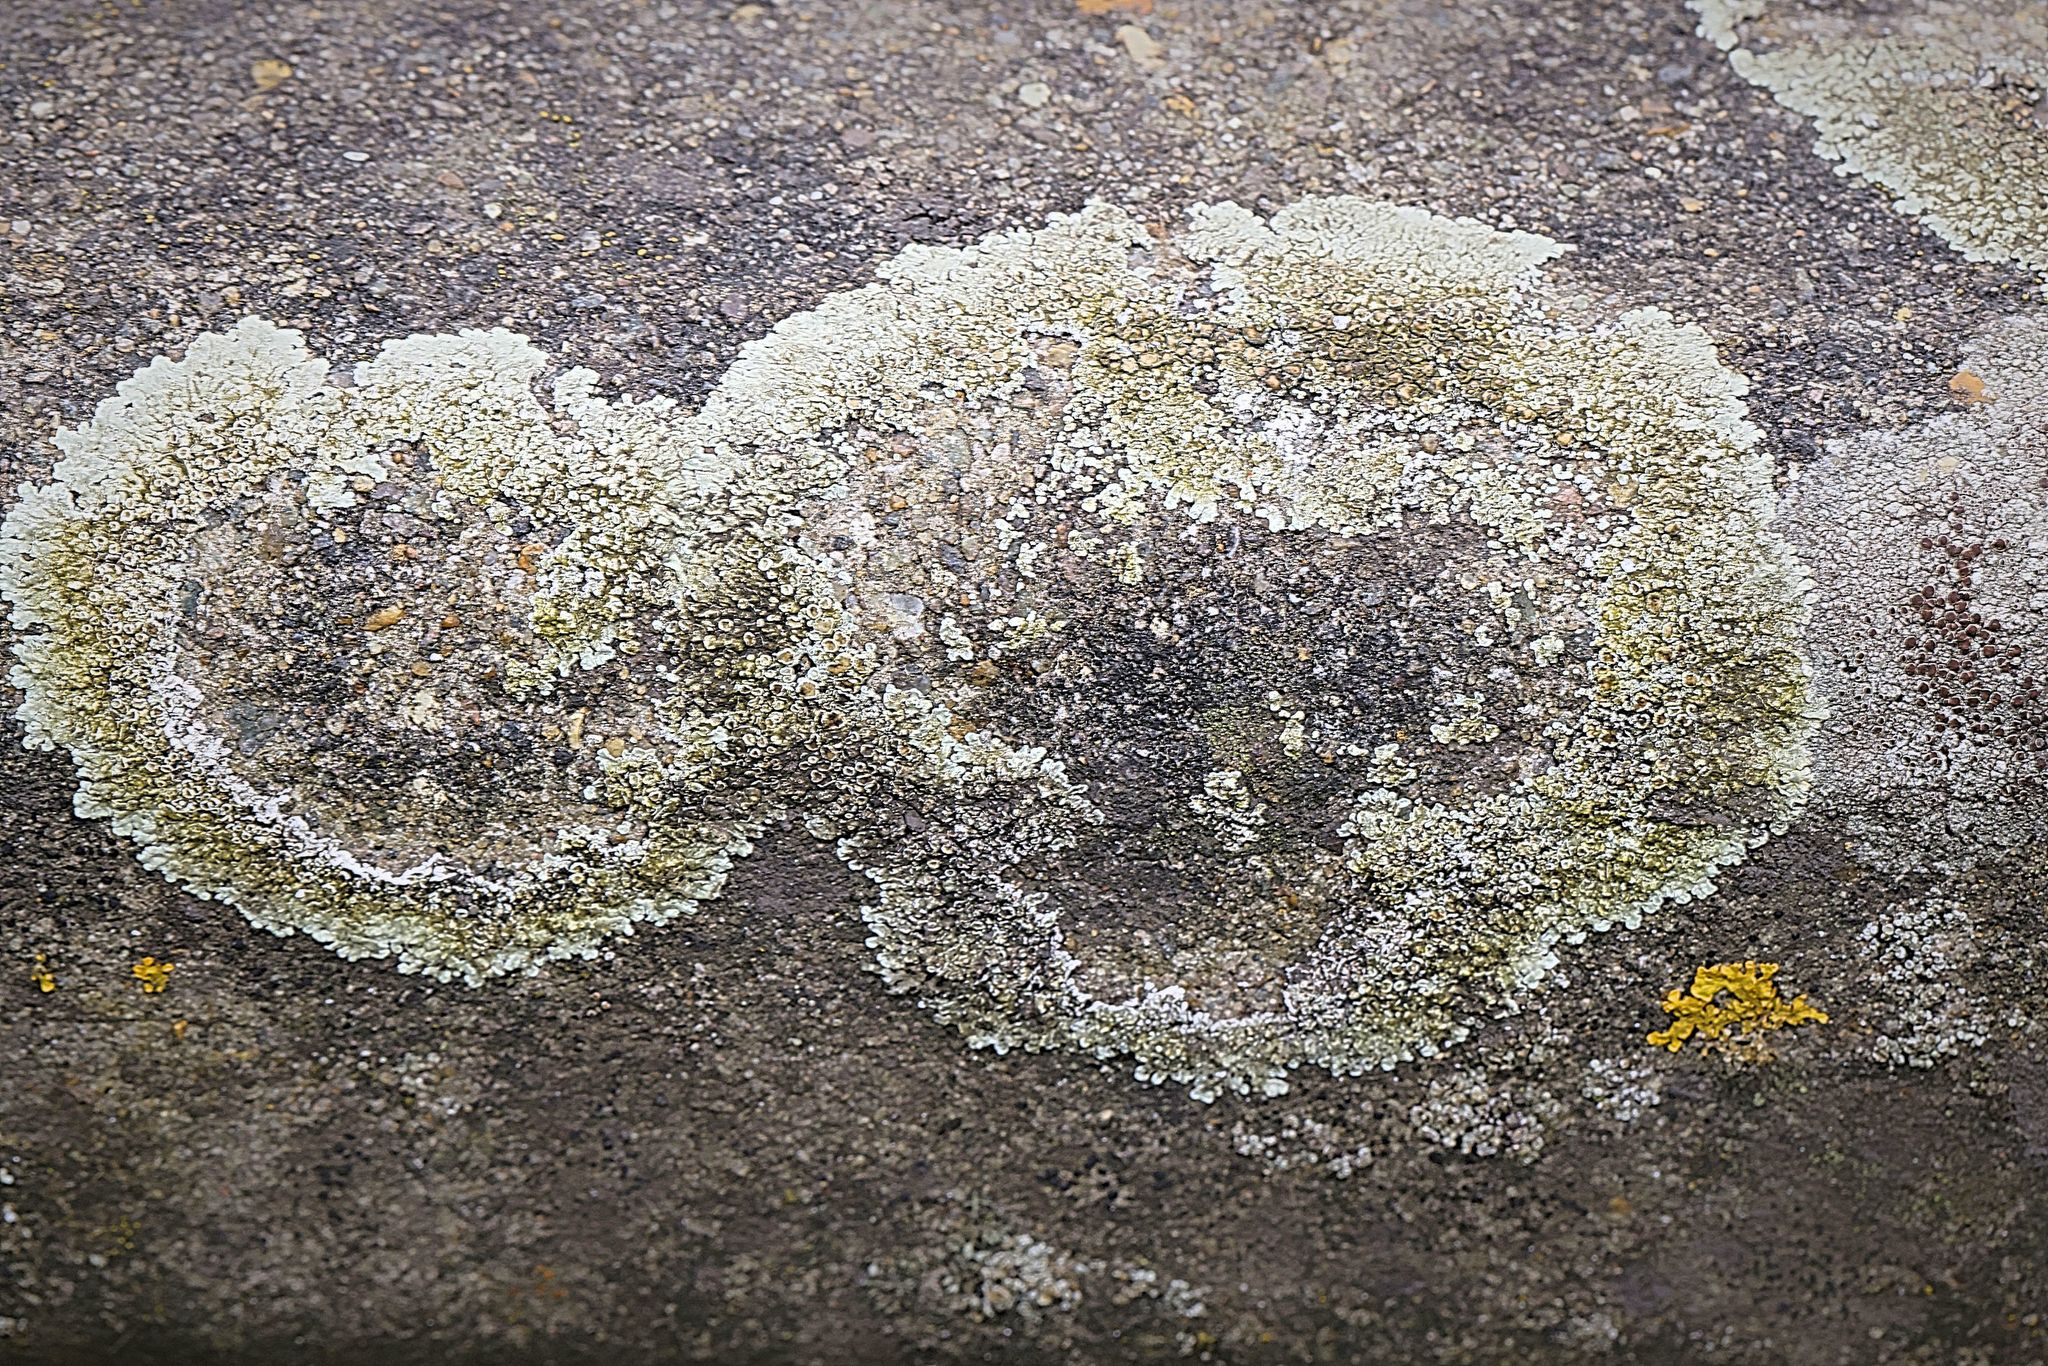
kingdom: Fungi
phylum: Ascomycota
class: Lecanoromycetes
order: Lecanorales
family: Lecanoraceae
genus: Protoparmeliopsis
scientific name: Protoparmeliopsis muralis
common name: Stonewall rim lichen
